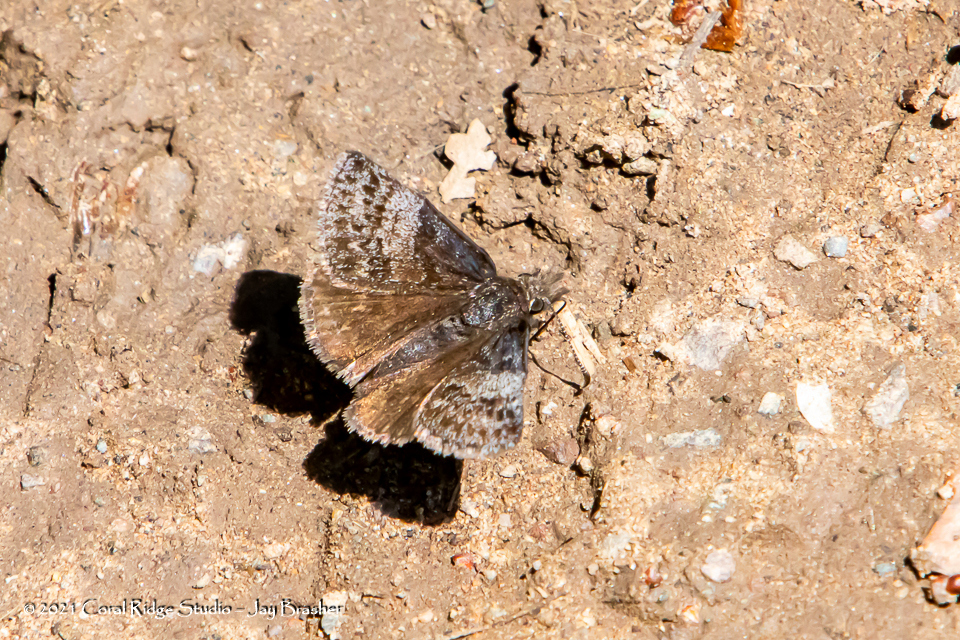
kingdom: Animalia
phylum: Arthropoda
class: Insecta
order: Lepidoptera
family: Hesperiidae
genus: Erynnis
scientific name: Erynnis icelus
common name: Dreamy duskywing
